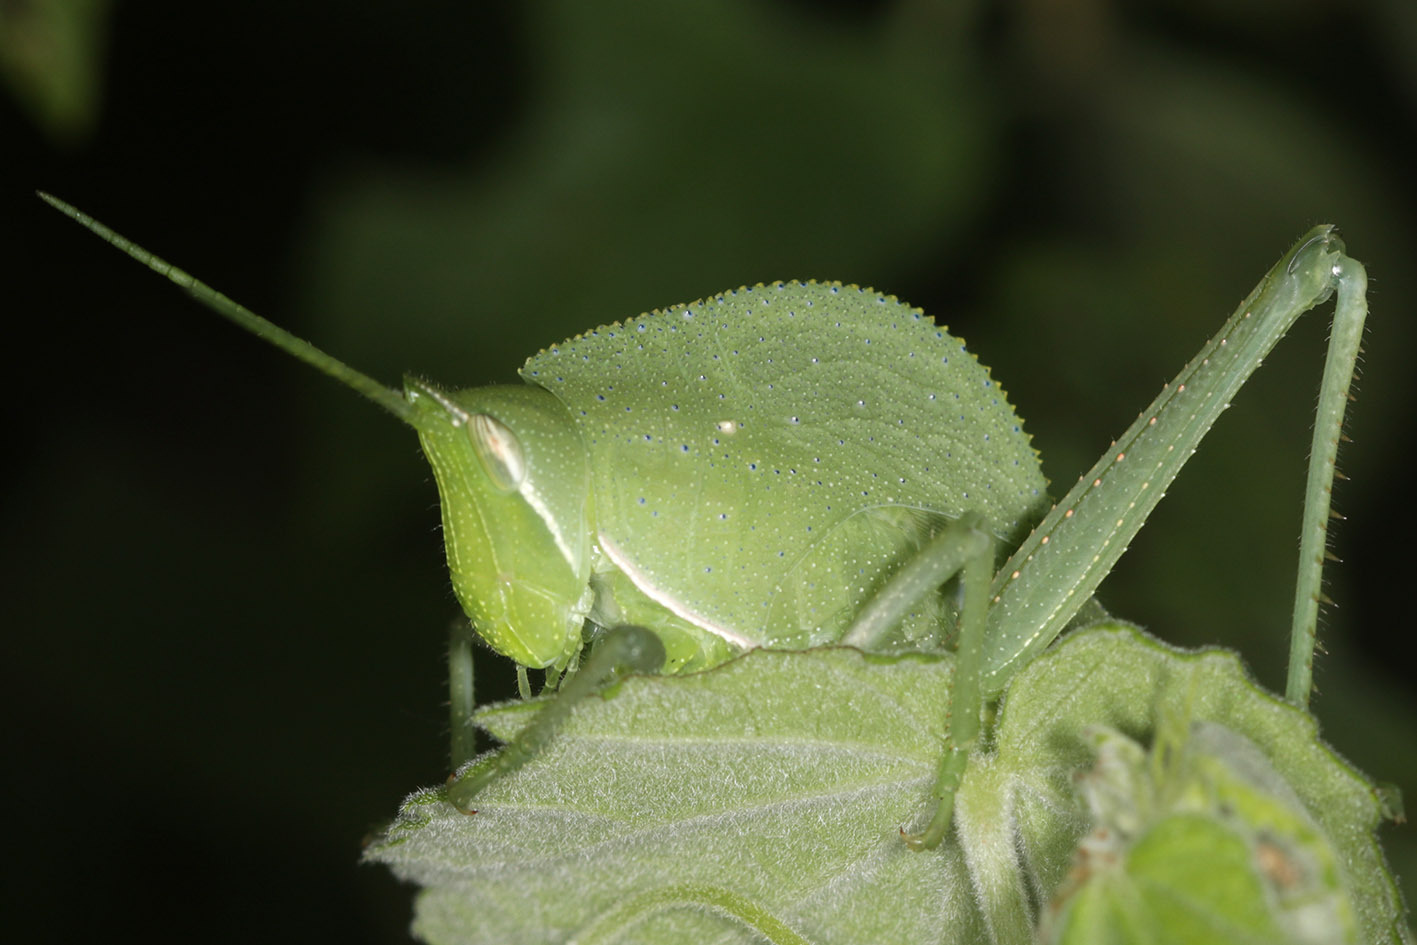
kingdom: Animalia
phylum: Arthropoda
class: Insecta
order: Orthoptera
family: Romaleidae
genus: Prionolopha
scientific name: Prionolopha serrata
